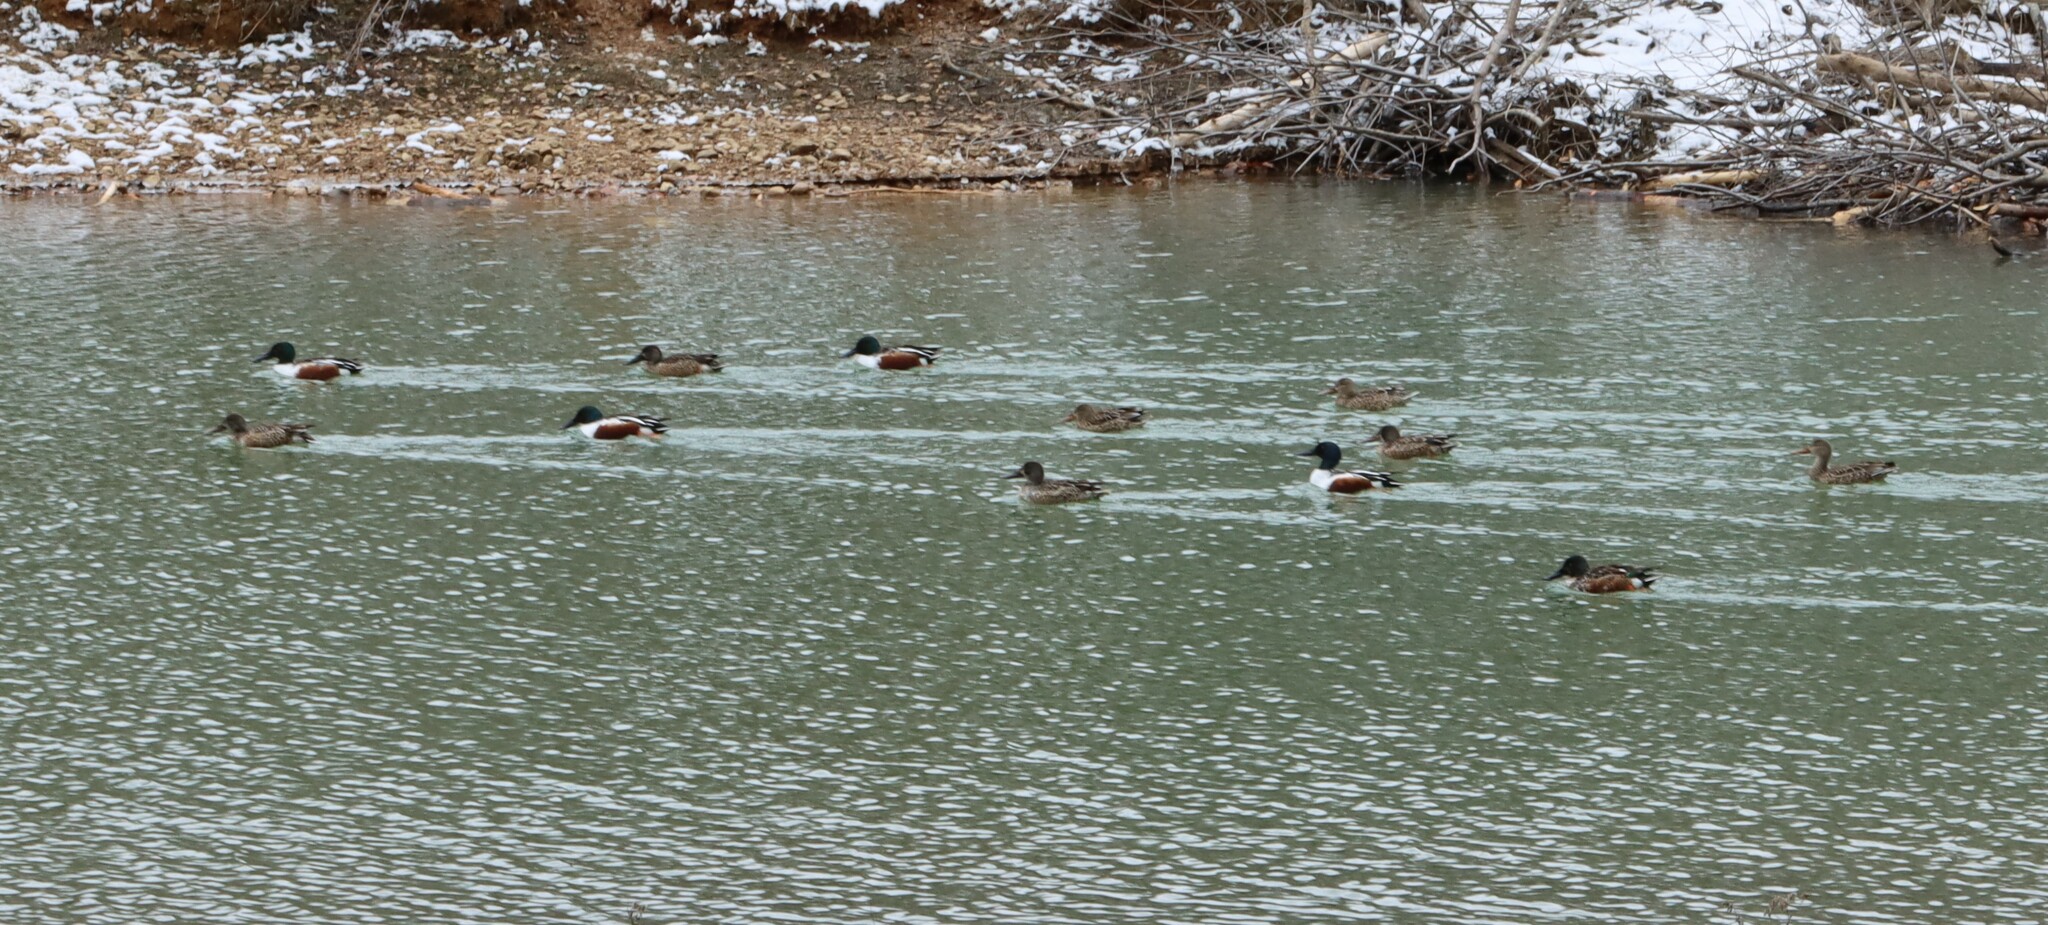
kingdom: Animalia
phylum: Chordata
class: Aves
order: Anseriformes
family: Anatidae
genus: Spatula
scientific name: Spatula clypeata
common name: Northern shoveler
